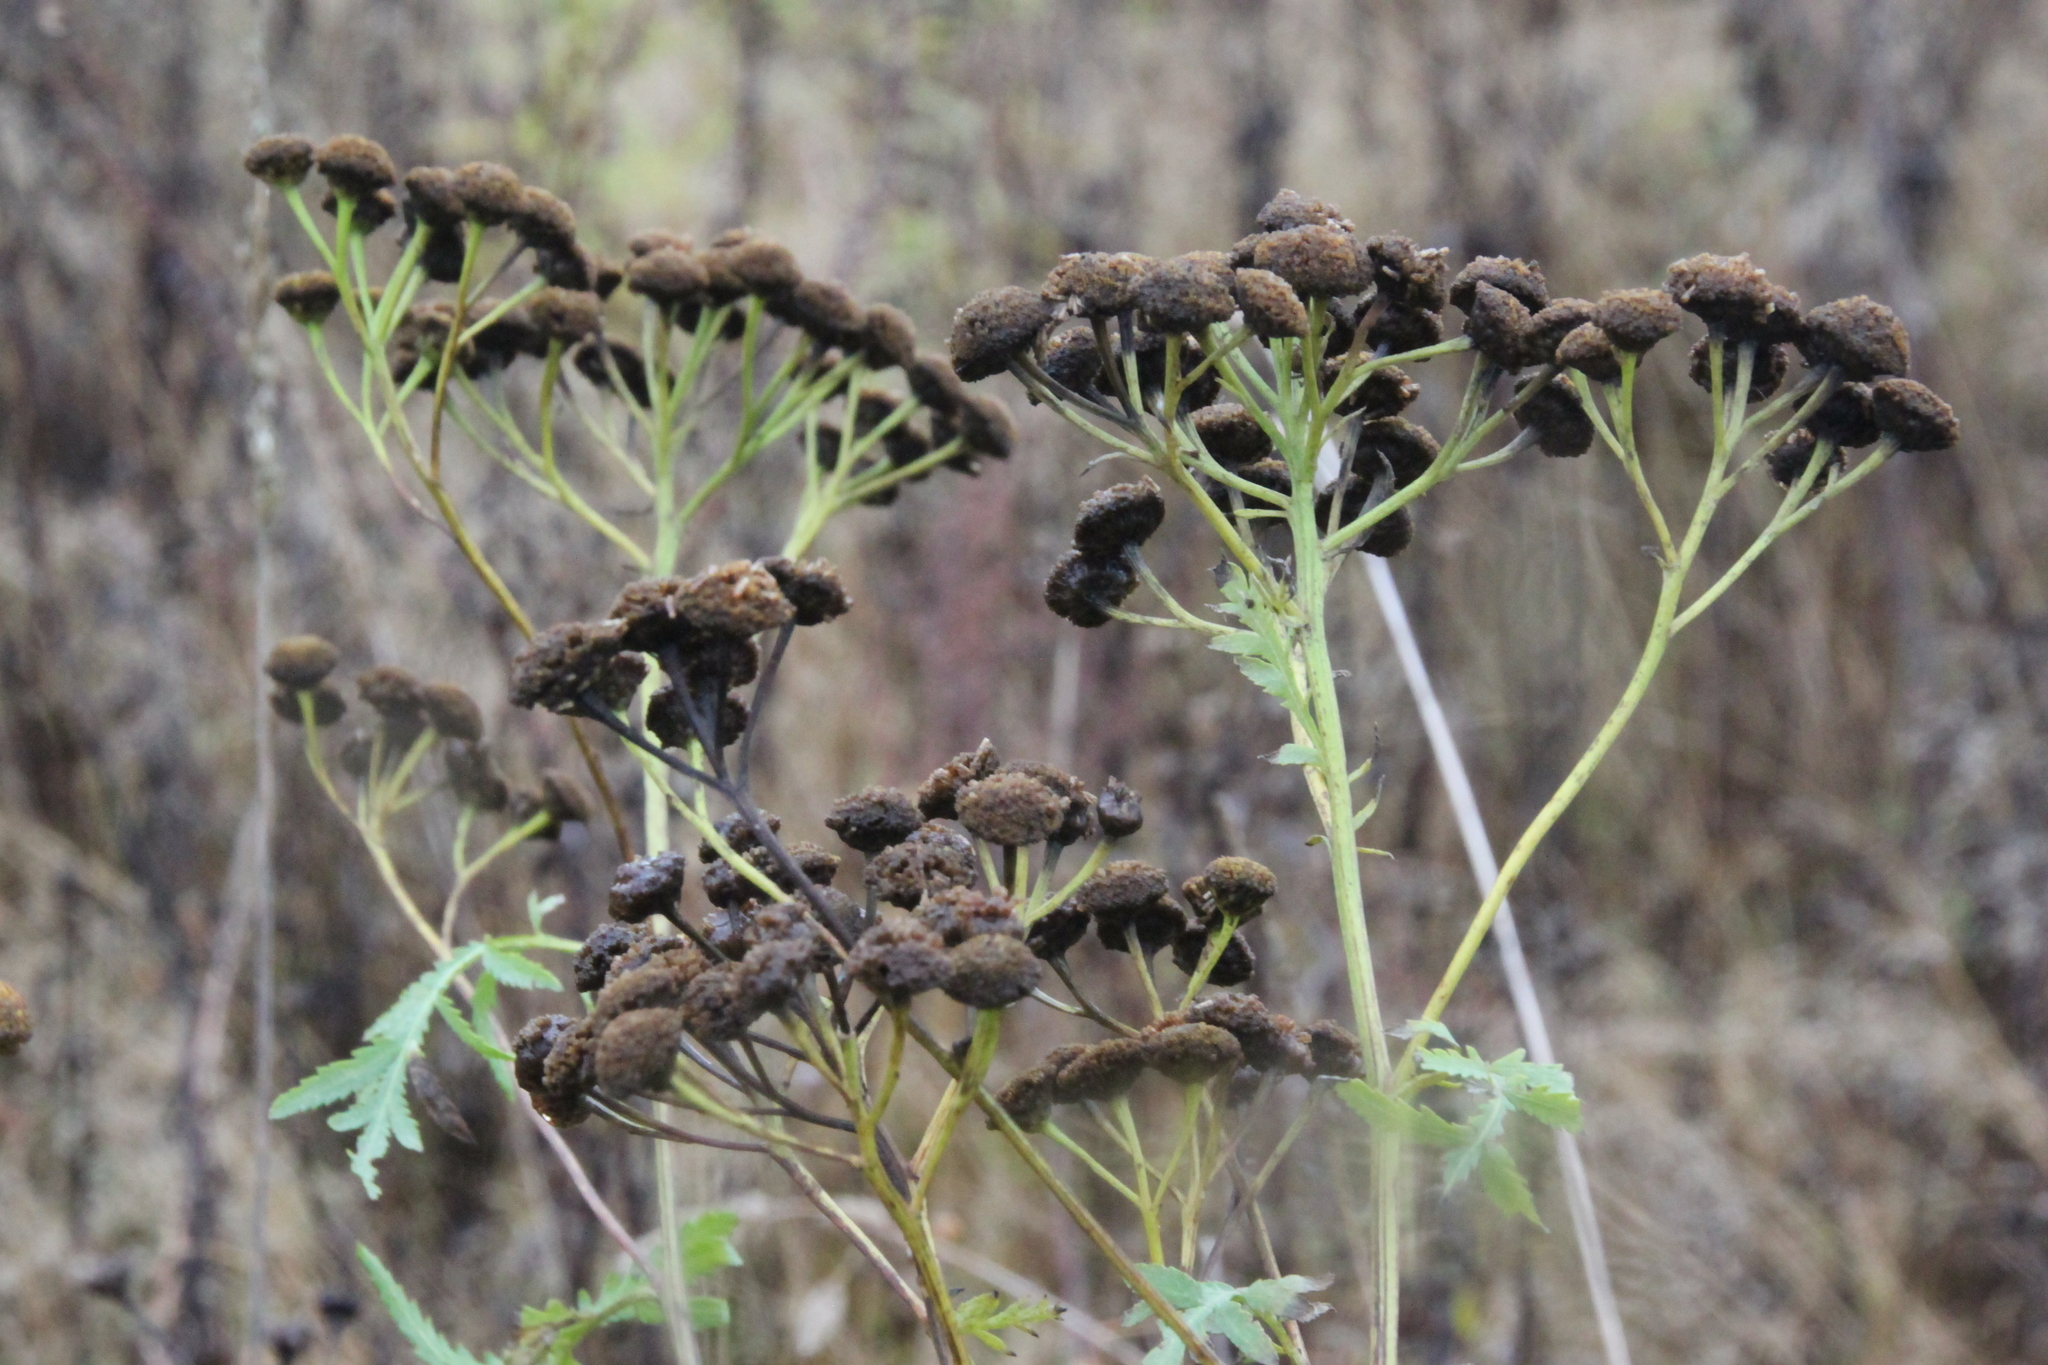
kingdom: Plantae
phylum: Tracheophyta
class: Magnoliopsida
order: Asterales
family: Asteraceae
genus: Tanacetum
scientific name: Tanacetum vulgare
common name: Common tansy
